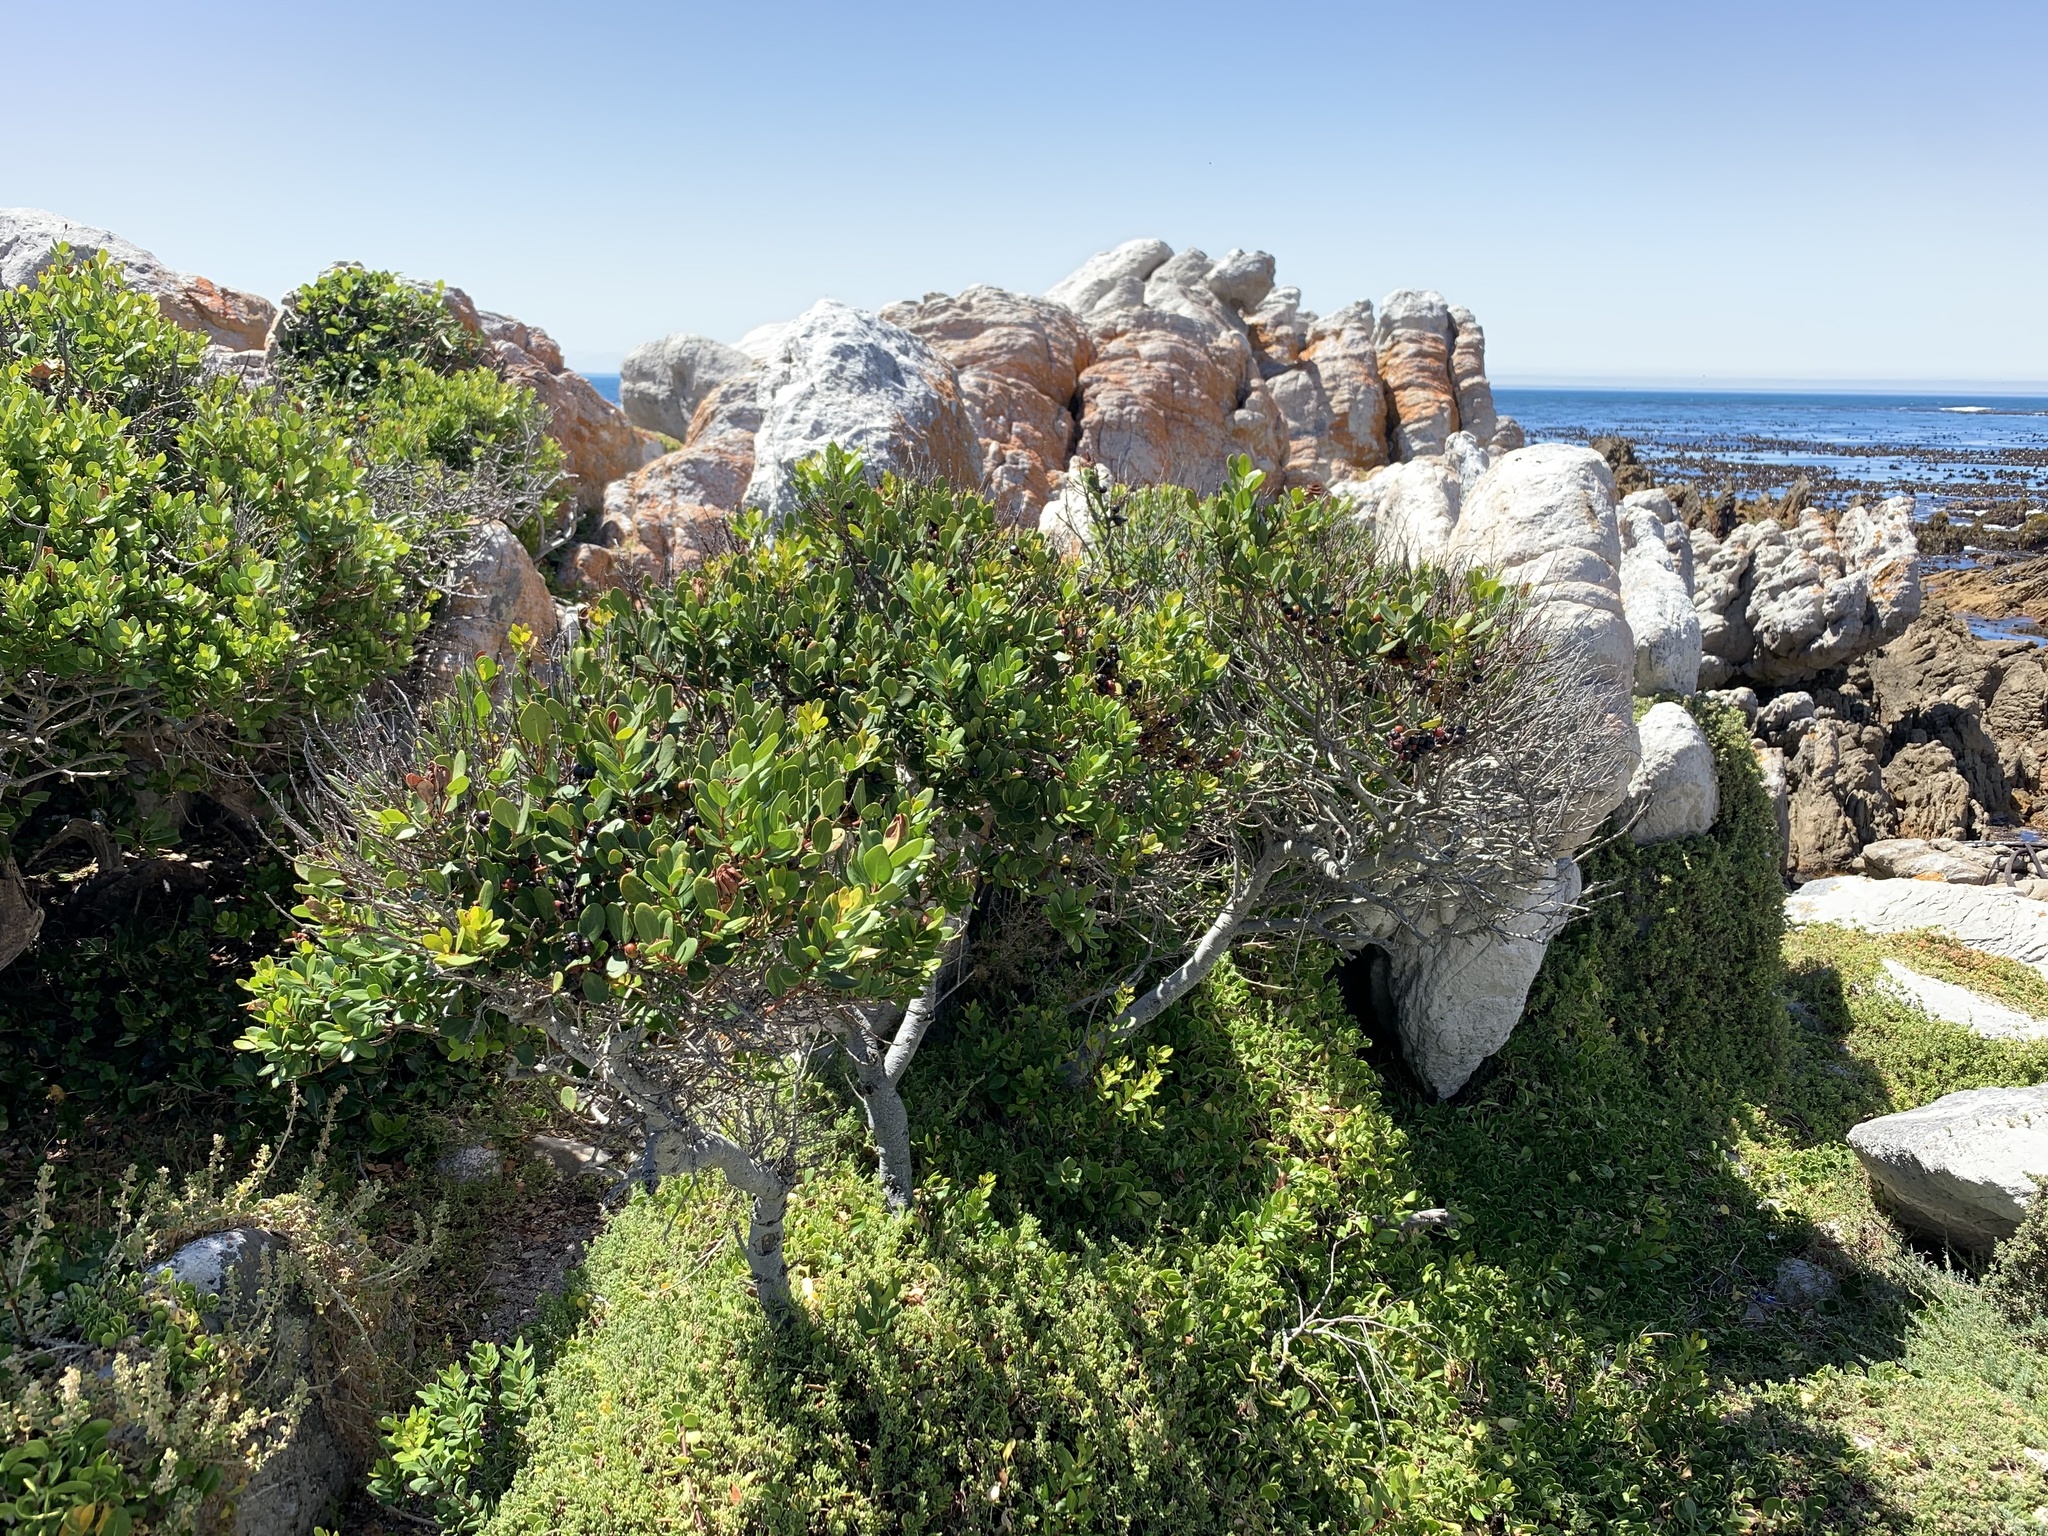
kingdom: Plantae
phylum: Tracheophyta
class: Magnoliopsida
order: Ericales
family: Ebenaceae
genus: Euclea
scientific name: Euclea racemosa
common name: Dune guarri
